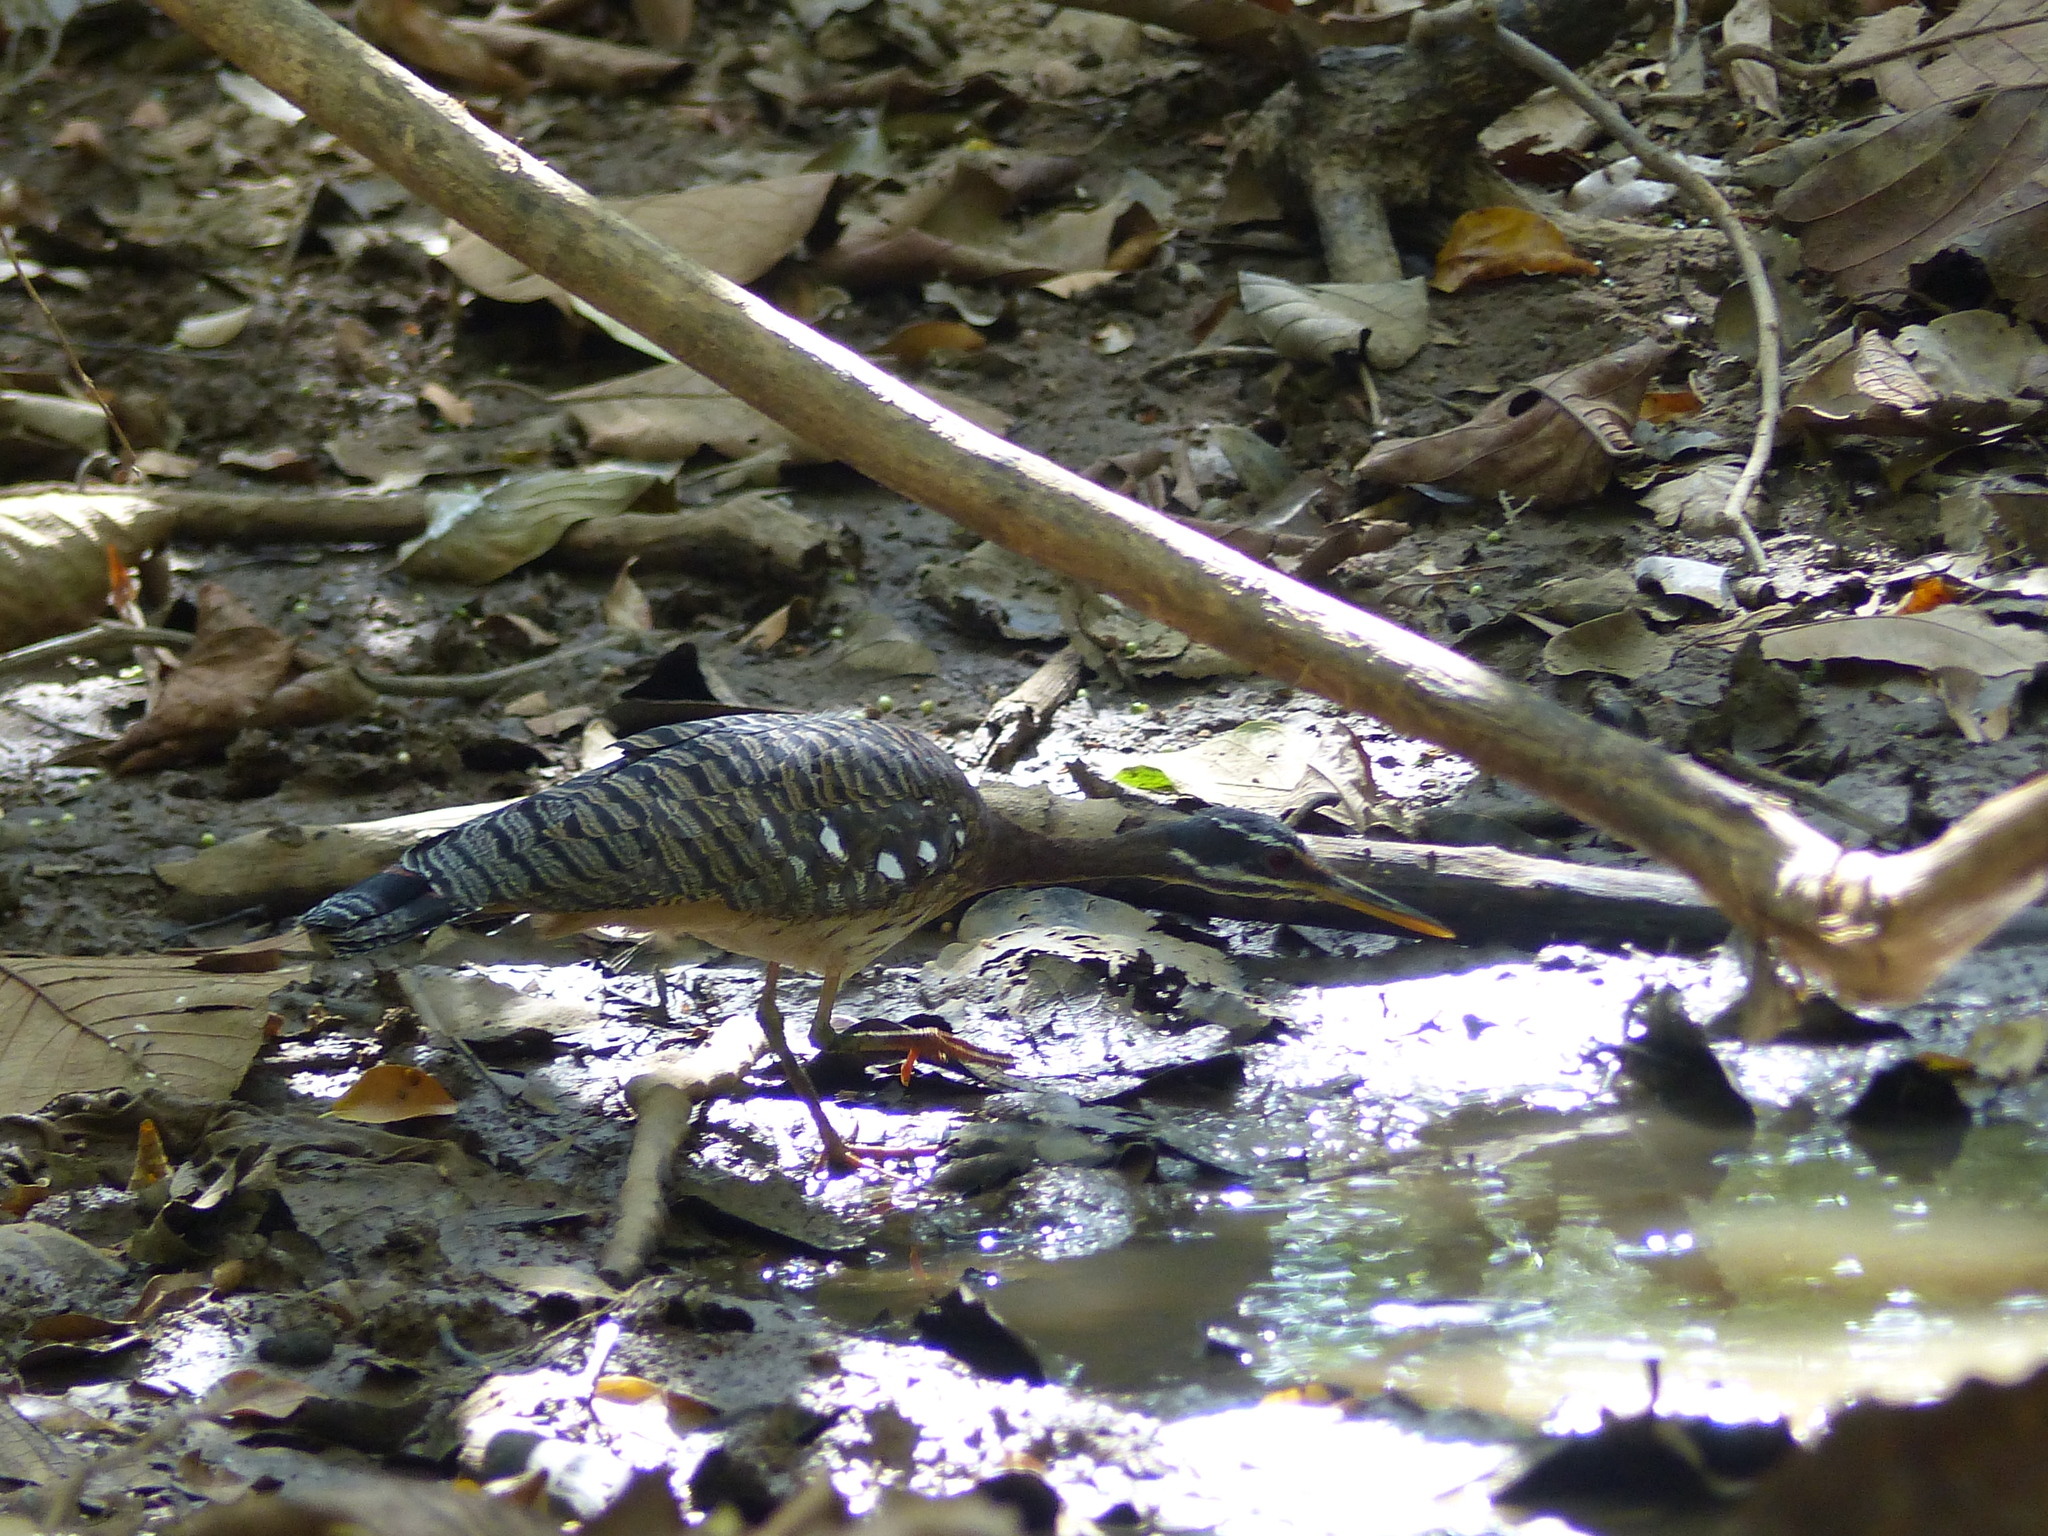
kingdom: Animalia
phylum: Chordata
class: Aves
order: Eurypygiformes
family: Eurypygidae
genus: Eurypyga
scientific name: Eurypyga helias
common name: Sunbittern
